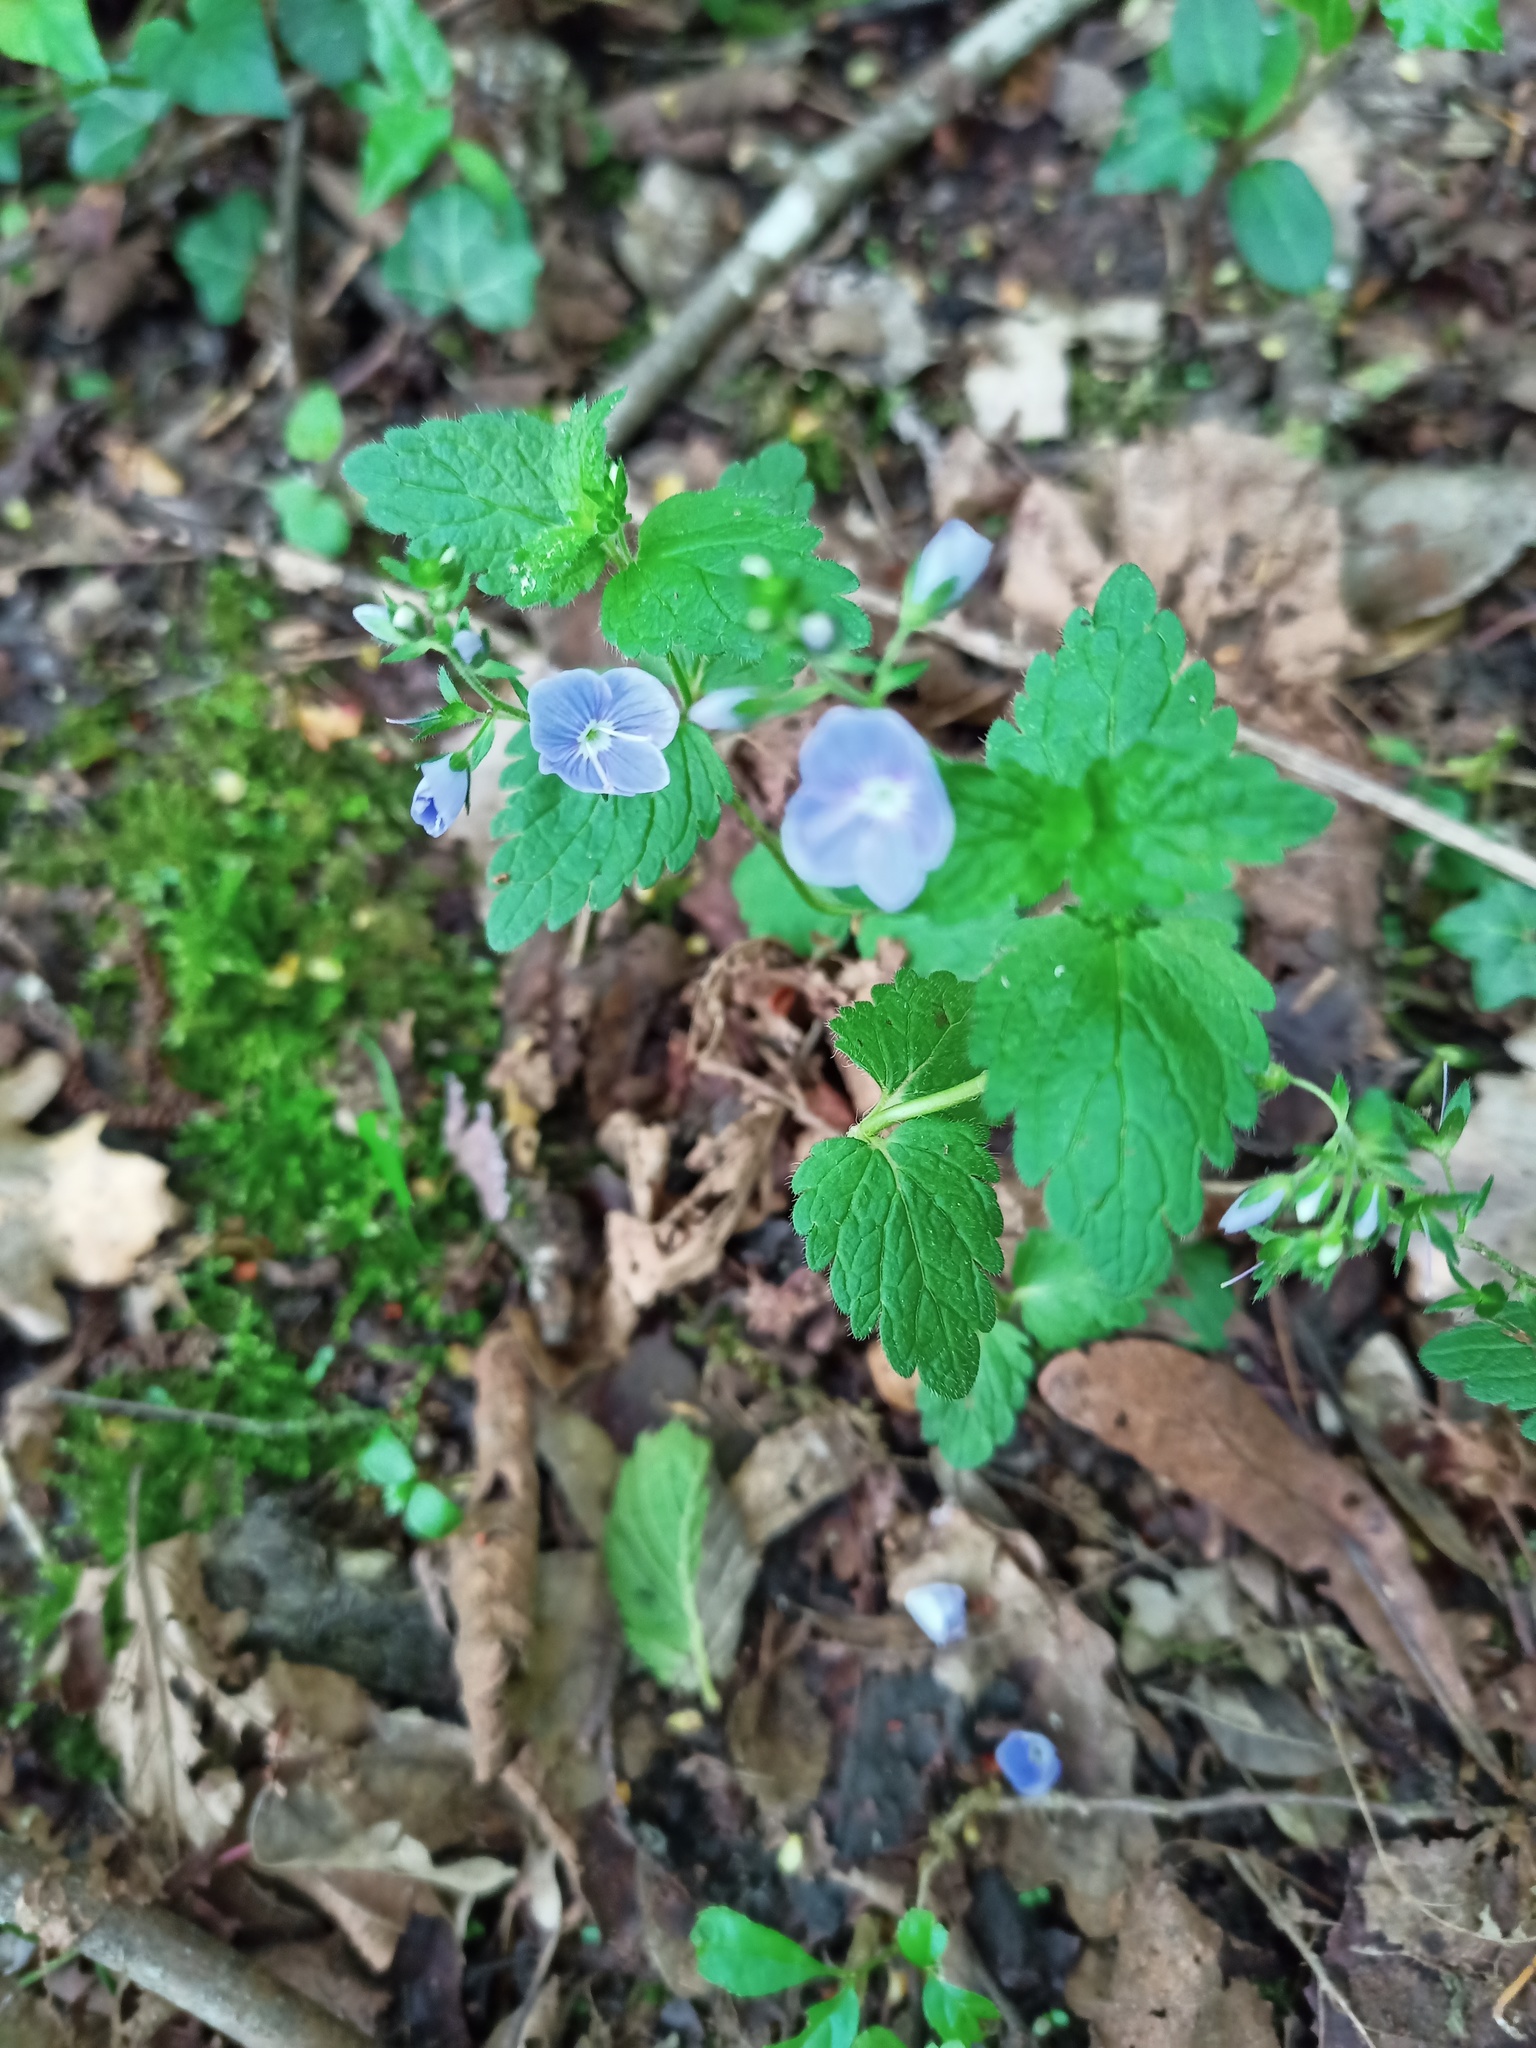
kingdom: Plantae
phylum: Tracheophyta
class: Magnoliopsida
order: Lamiales
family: Plantaginaceae
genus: Veronica
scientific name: Veronica chamaedrys
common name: Germander speedwell
